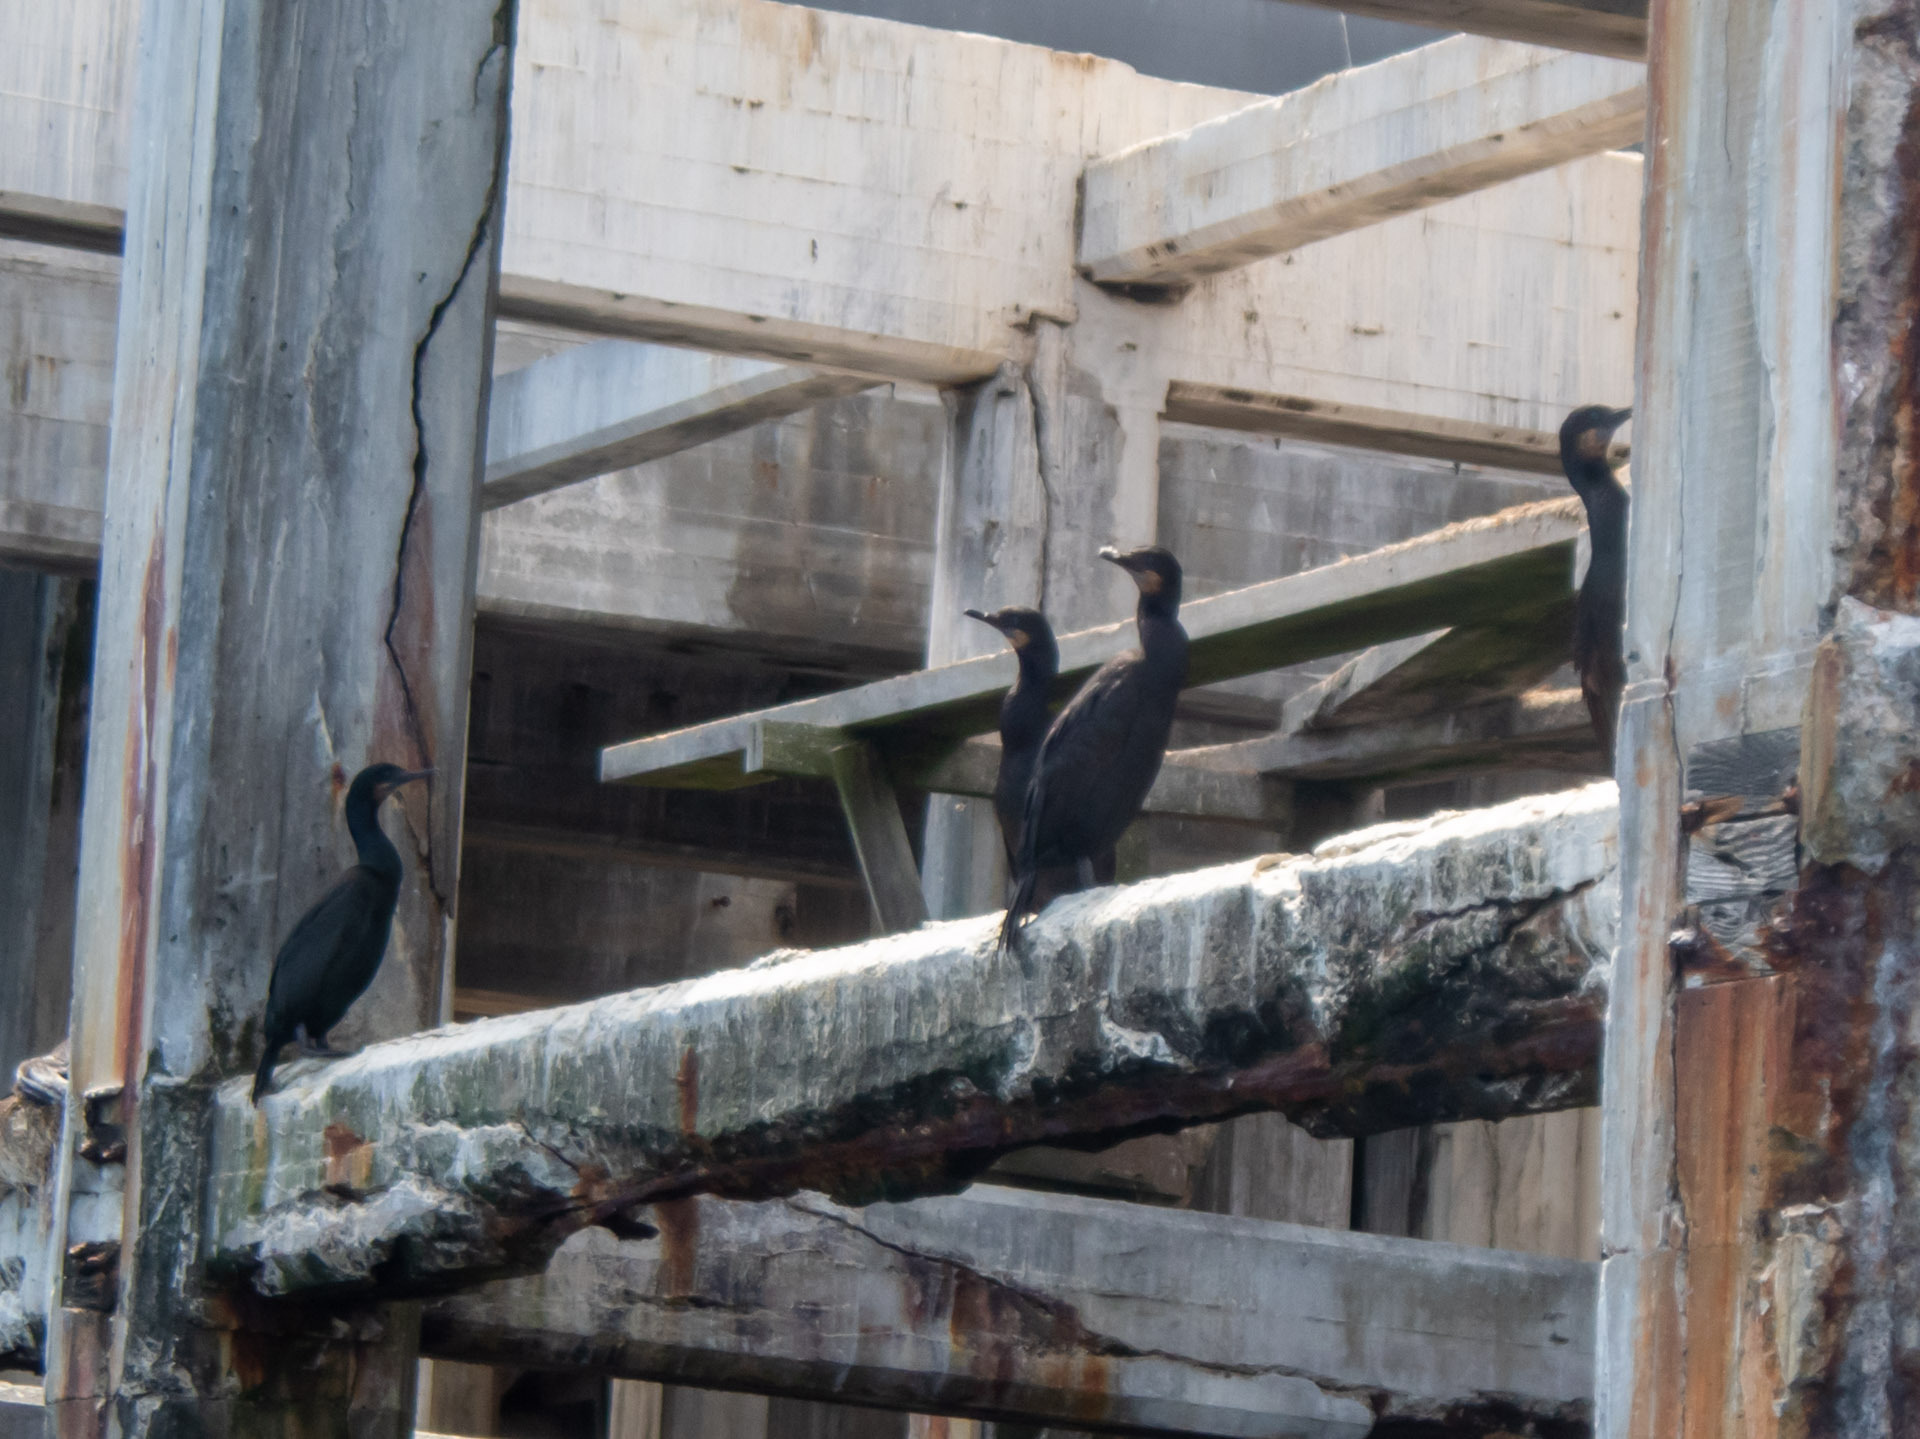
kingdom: Animalia
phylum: Chordata
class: Aves
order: Suliformes
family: Phalacrocoracidae
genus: Urile
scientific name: Urile penicillatus
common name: Brandt's cormorant
